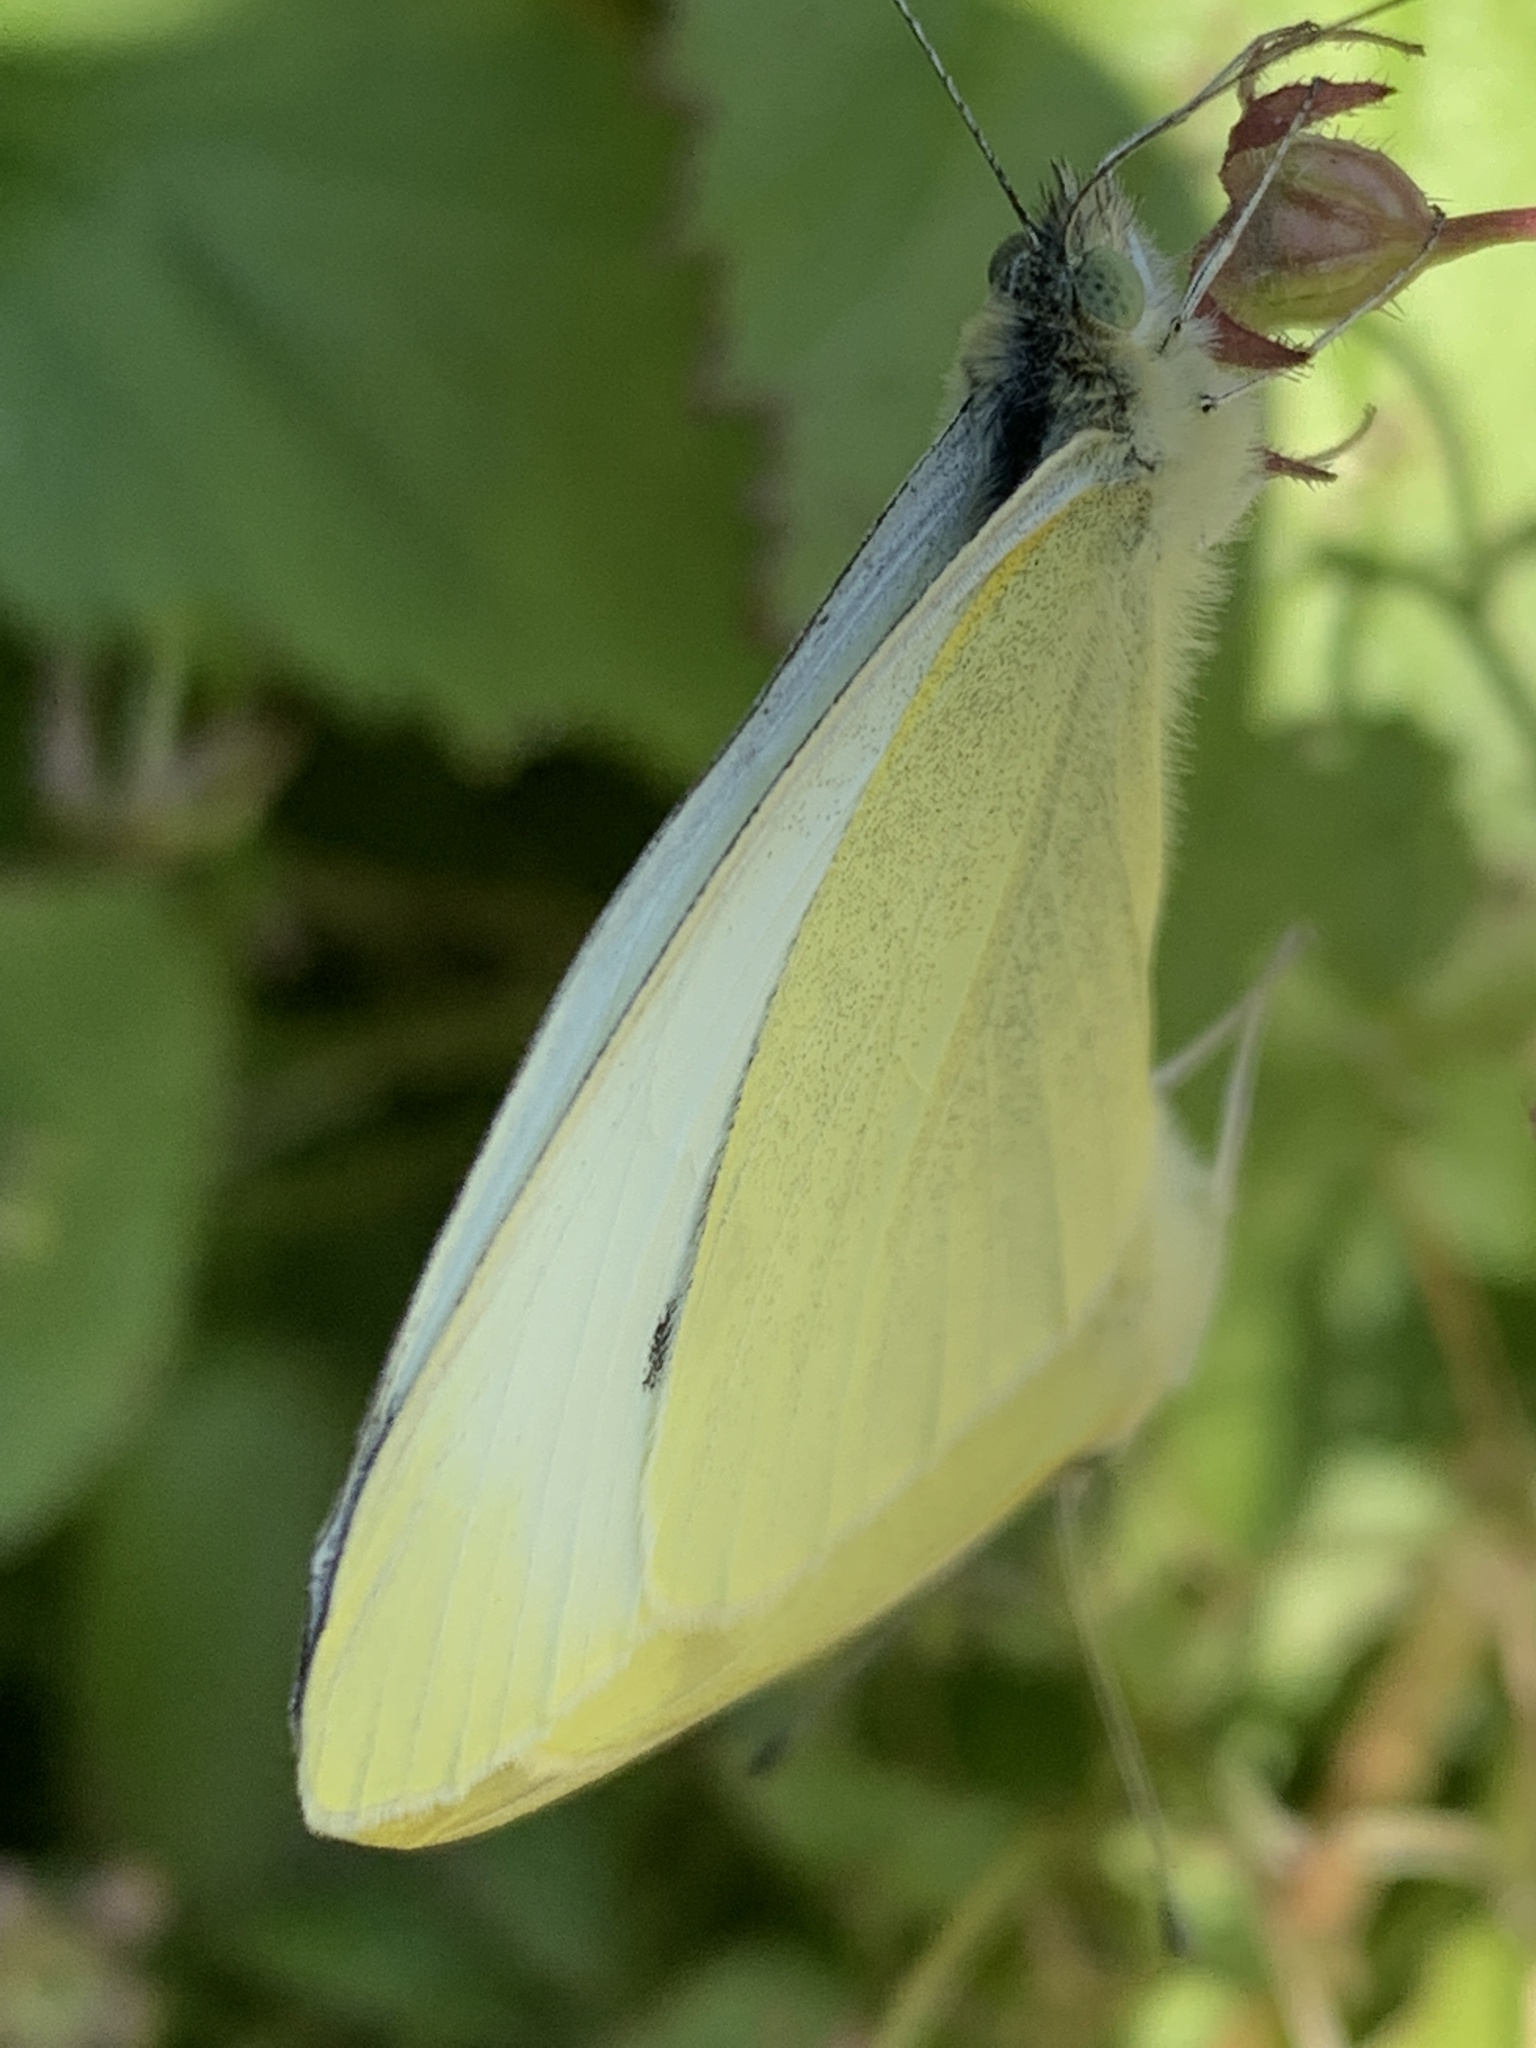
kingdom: Animalia
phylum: Arthropoda
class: Insecta
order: Lepidoptera
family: Pieridae
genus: Pieris
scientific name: Pieris rapae
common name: Small white
